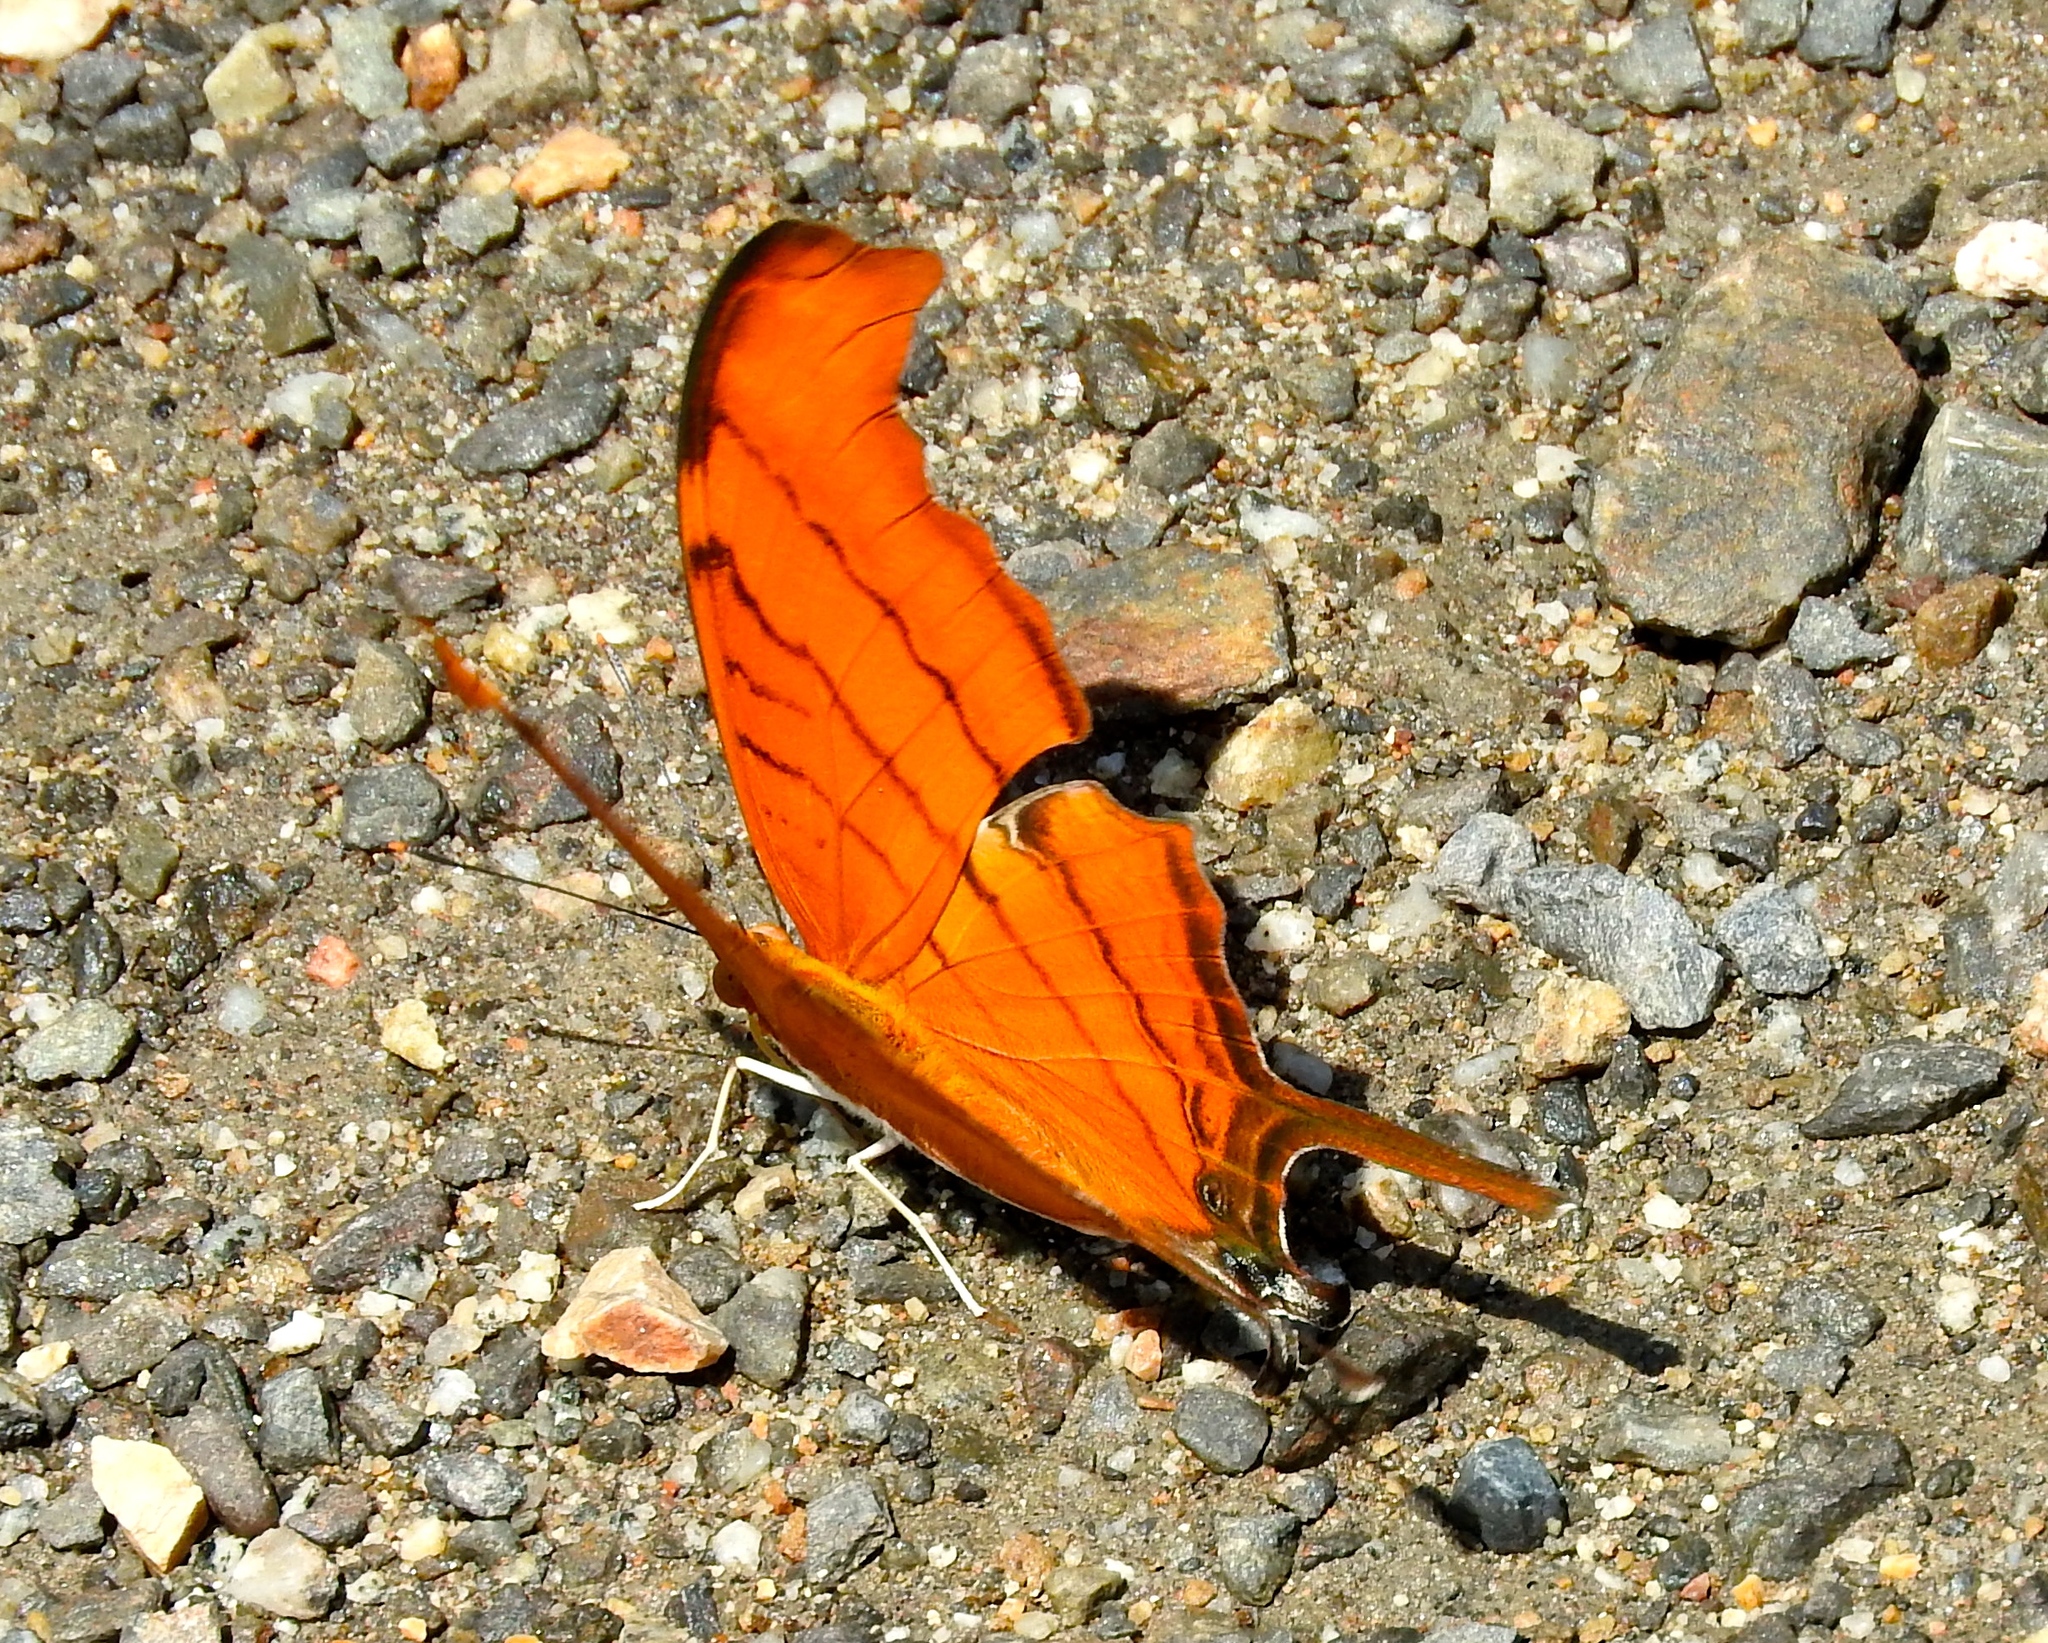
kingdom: Animalia
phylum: Arthropoda
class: Insecta
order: Lepidoptera
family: Nymphalidae
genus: Marpesia
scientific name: Marpesia petreus
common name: Red dagger wing
